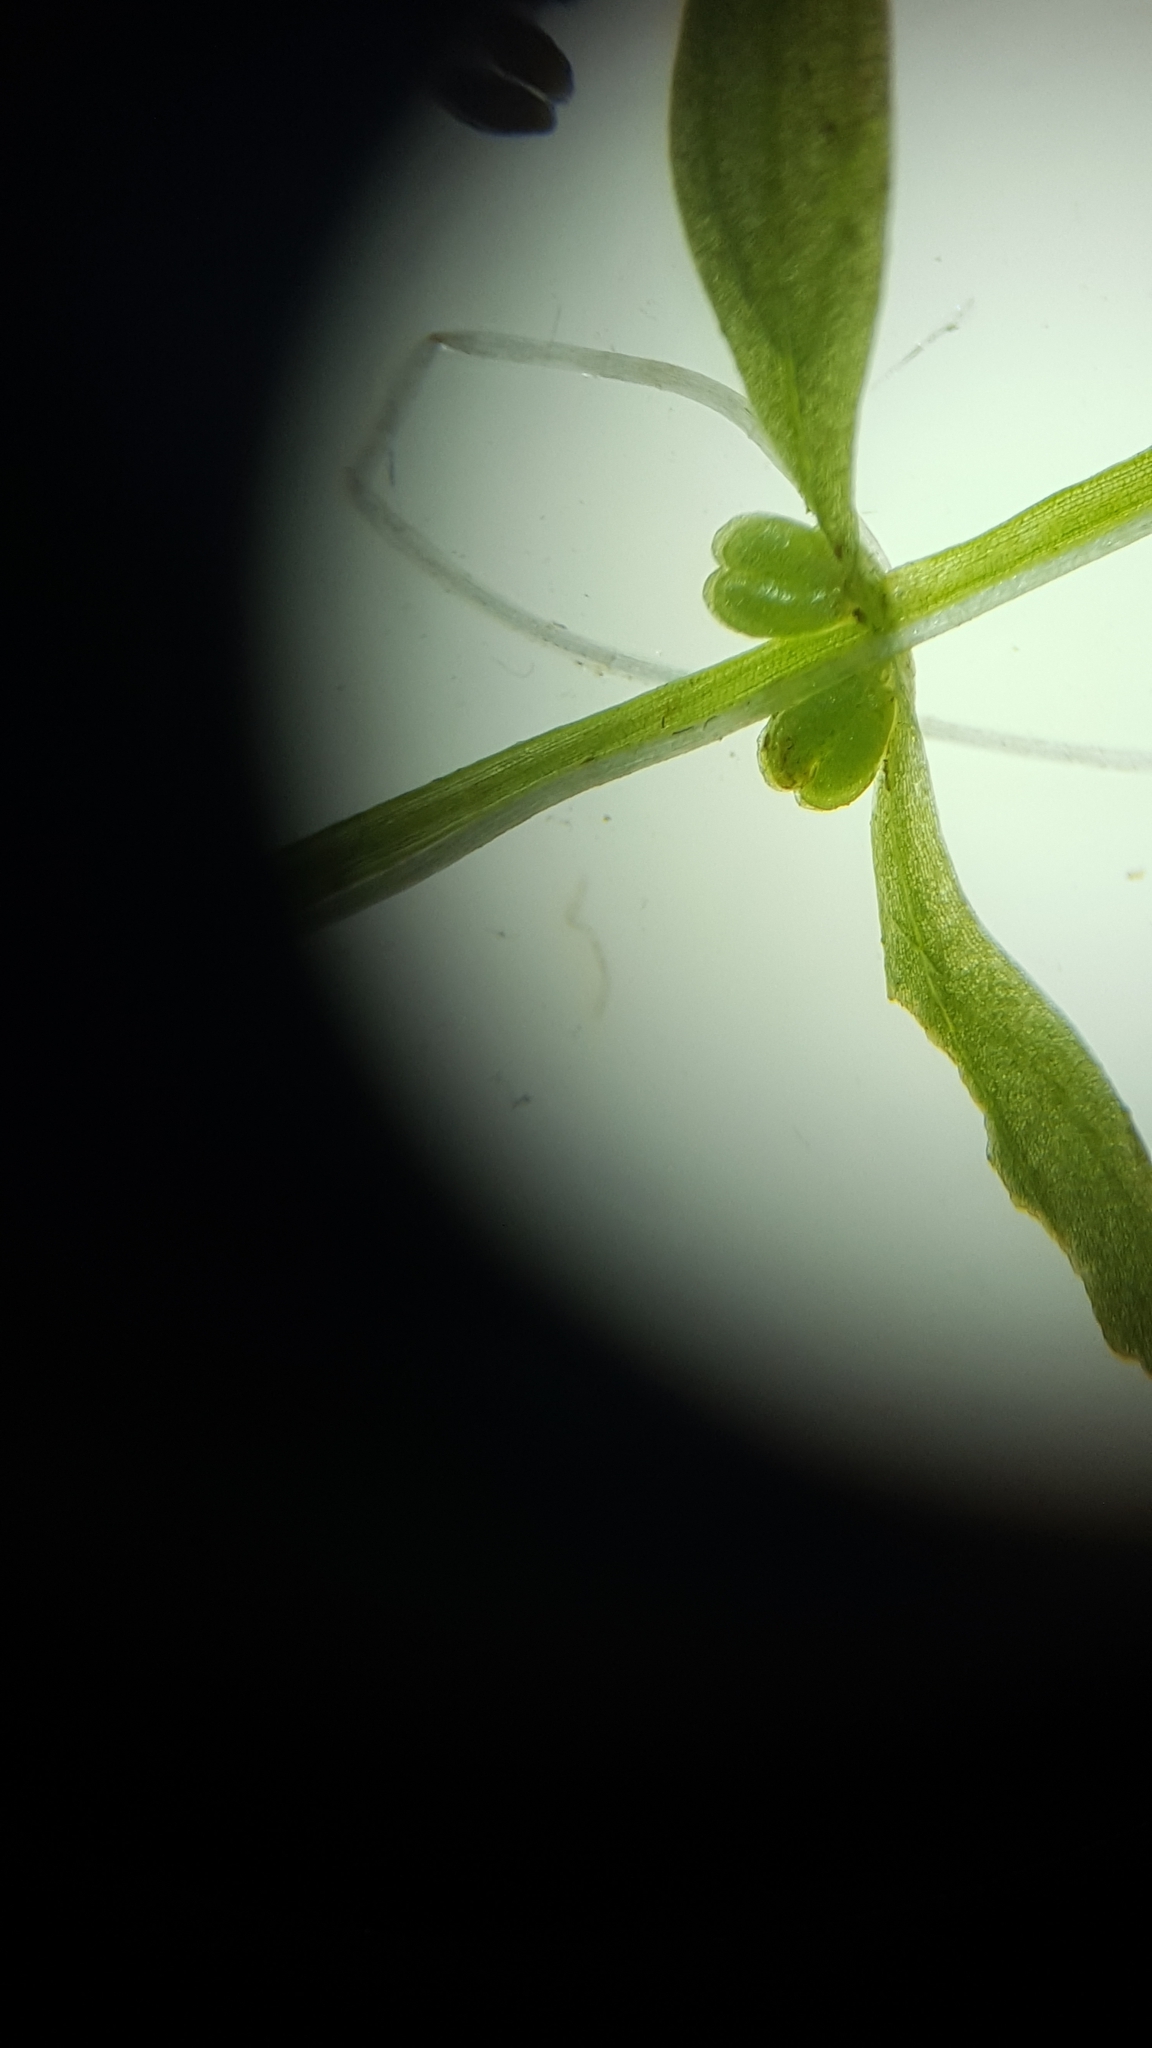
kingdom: Plantae
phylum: Tracheophyta
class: Magnoliopsida
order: Lamiales
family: Plantaginaceae
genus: Callitriche
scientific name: Callitriche palustris
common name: Spring water-starwort
